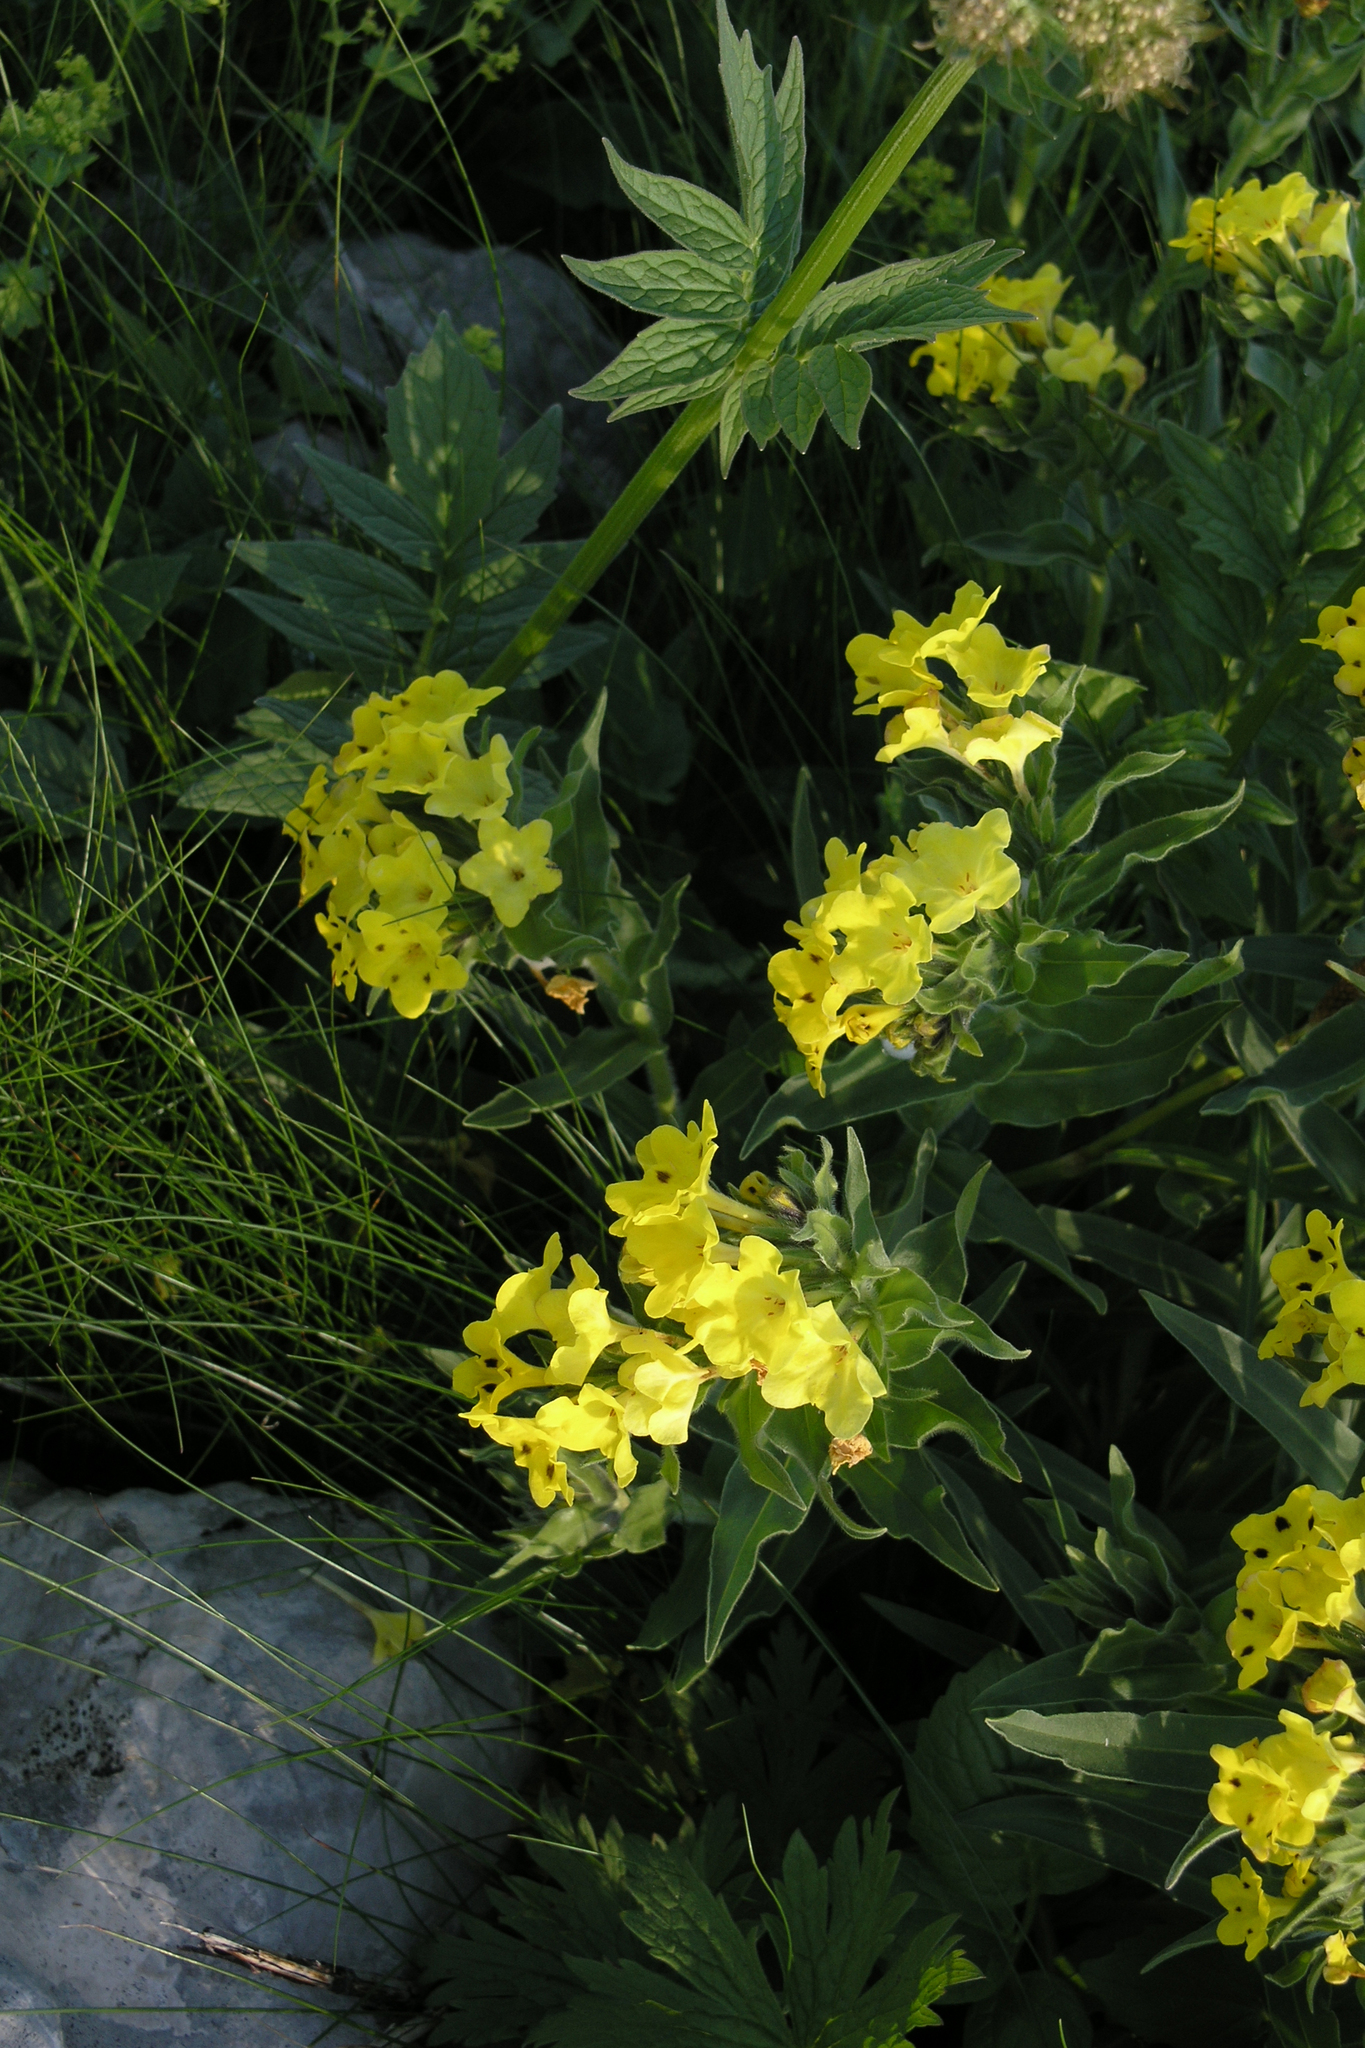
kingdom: Plantae
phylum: Tracheophyta
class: Magnoliopsida
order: Boraginales
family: Boraginaceae
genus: Huynhia
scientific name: Huynhia pulchra
